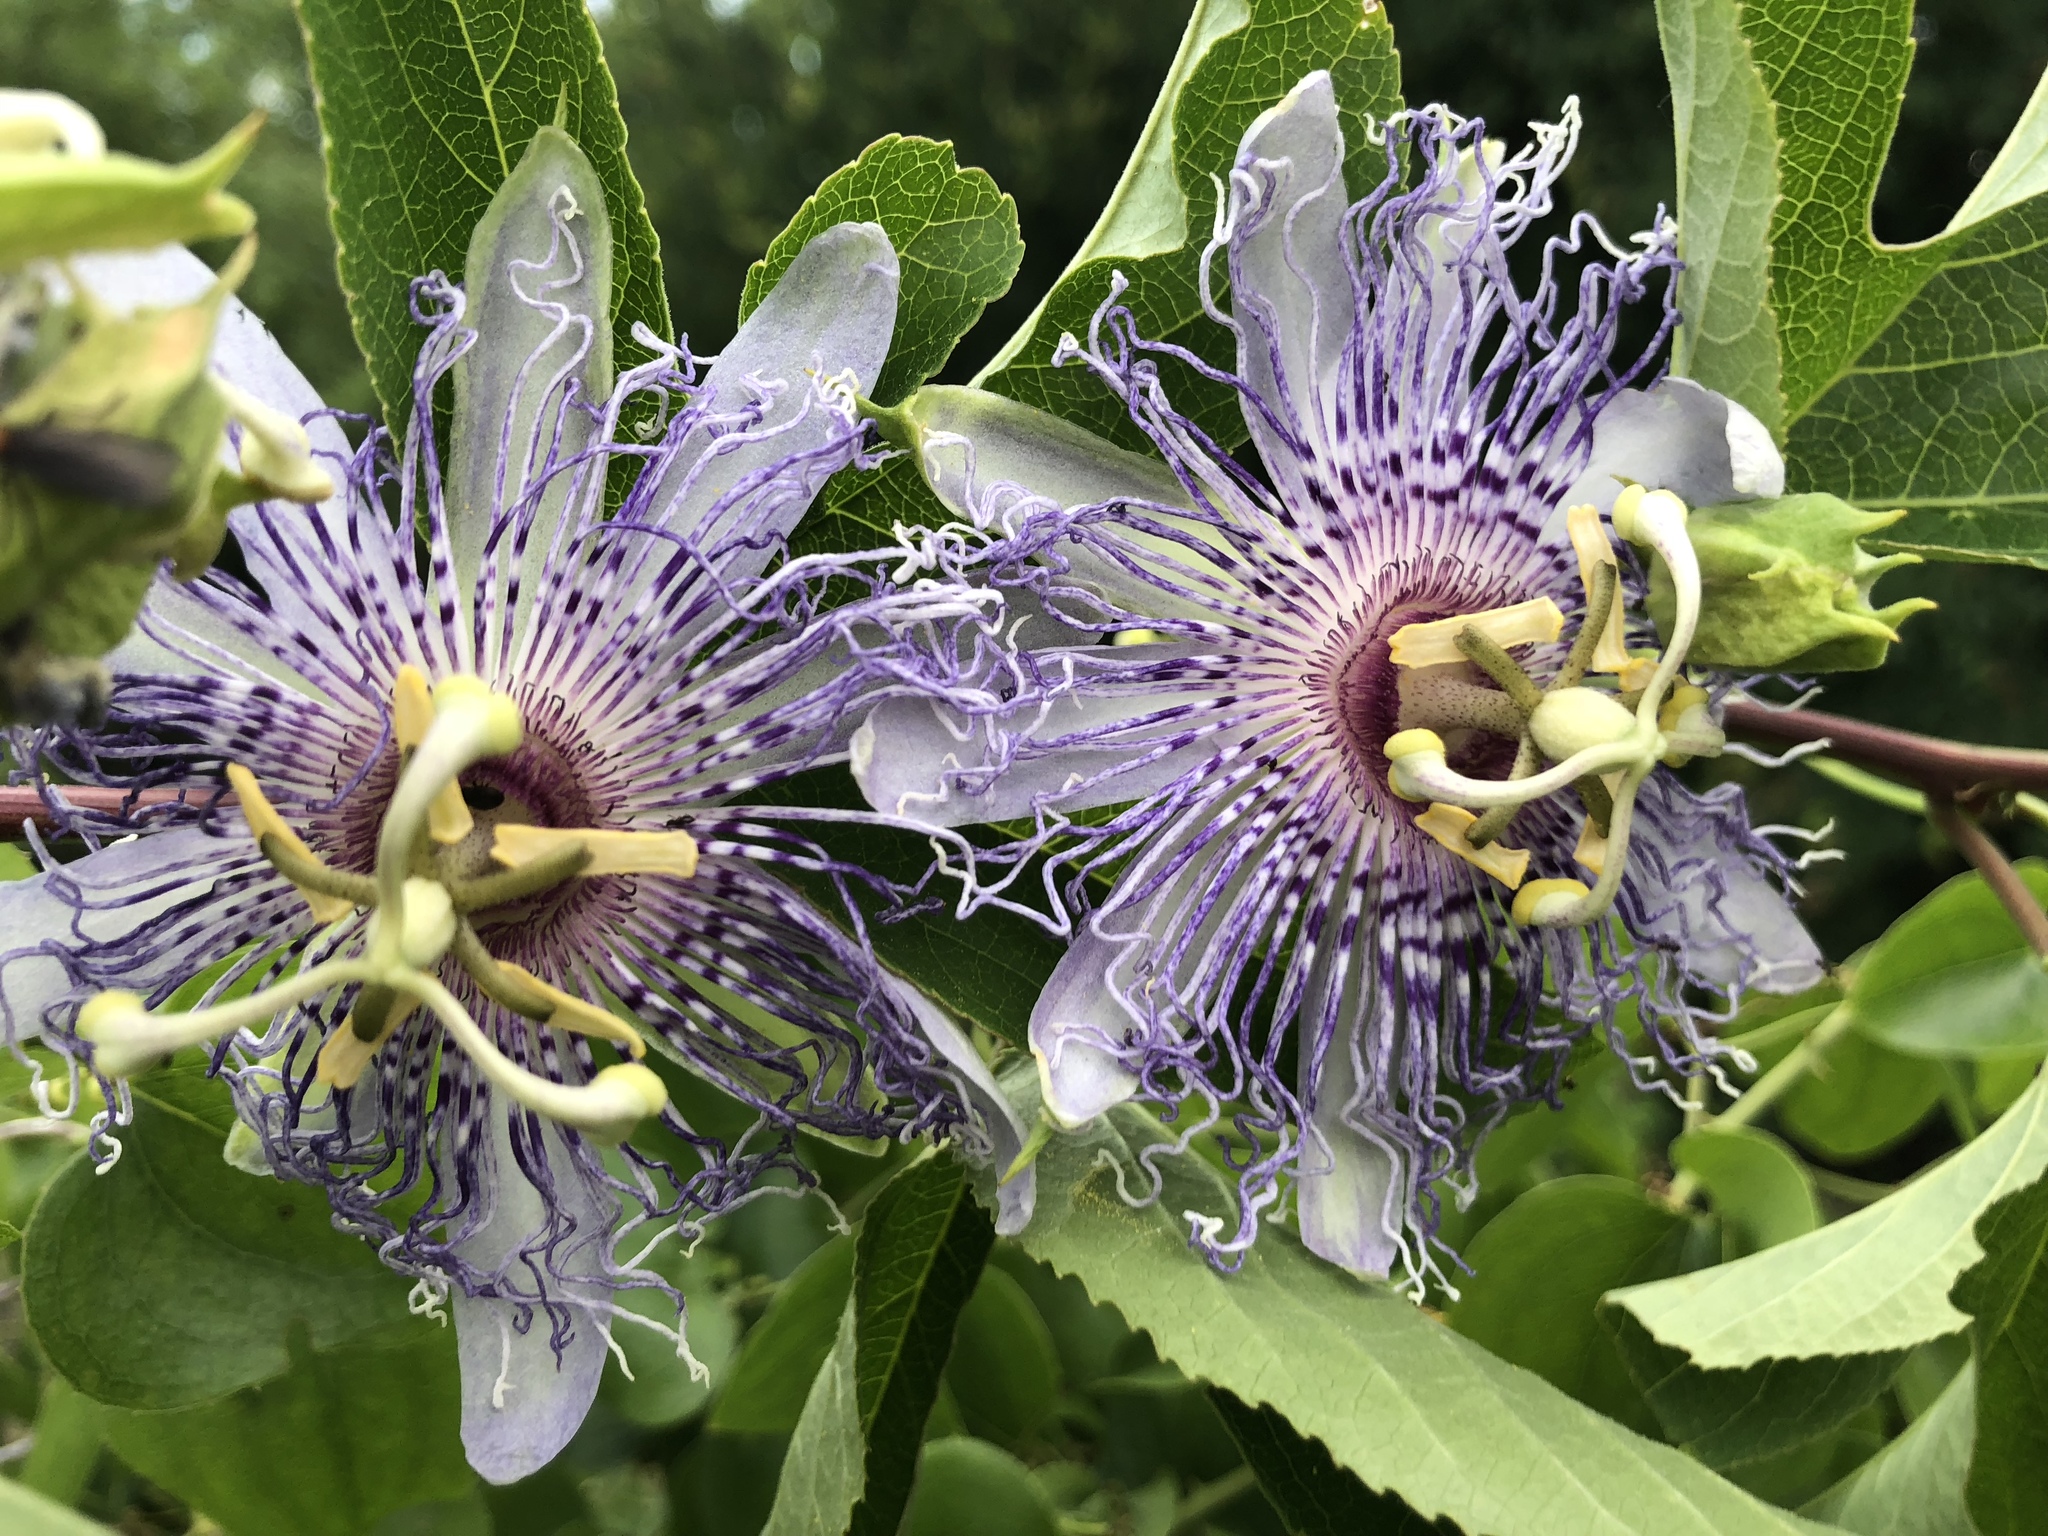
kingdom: Plantae
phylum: Tracheophyta
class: Magnoliopsida
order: Malpighiales
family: Passifloraceae
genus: Passiflora
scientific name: Passiflora incarnata
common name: Apricot-vine
